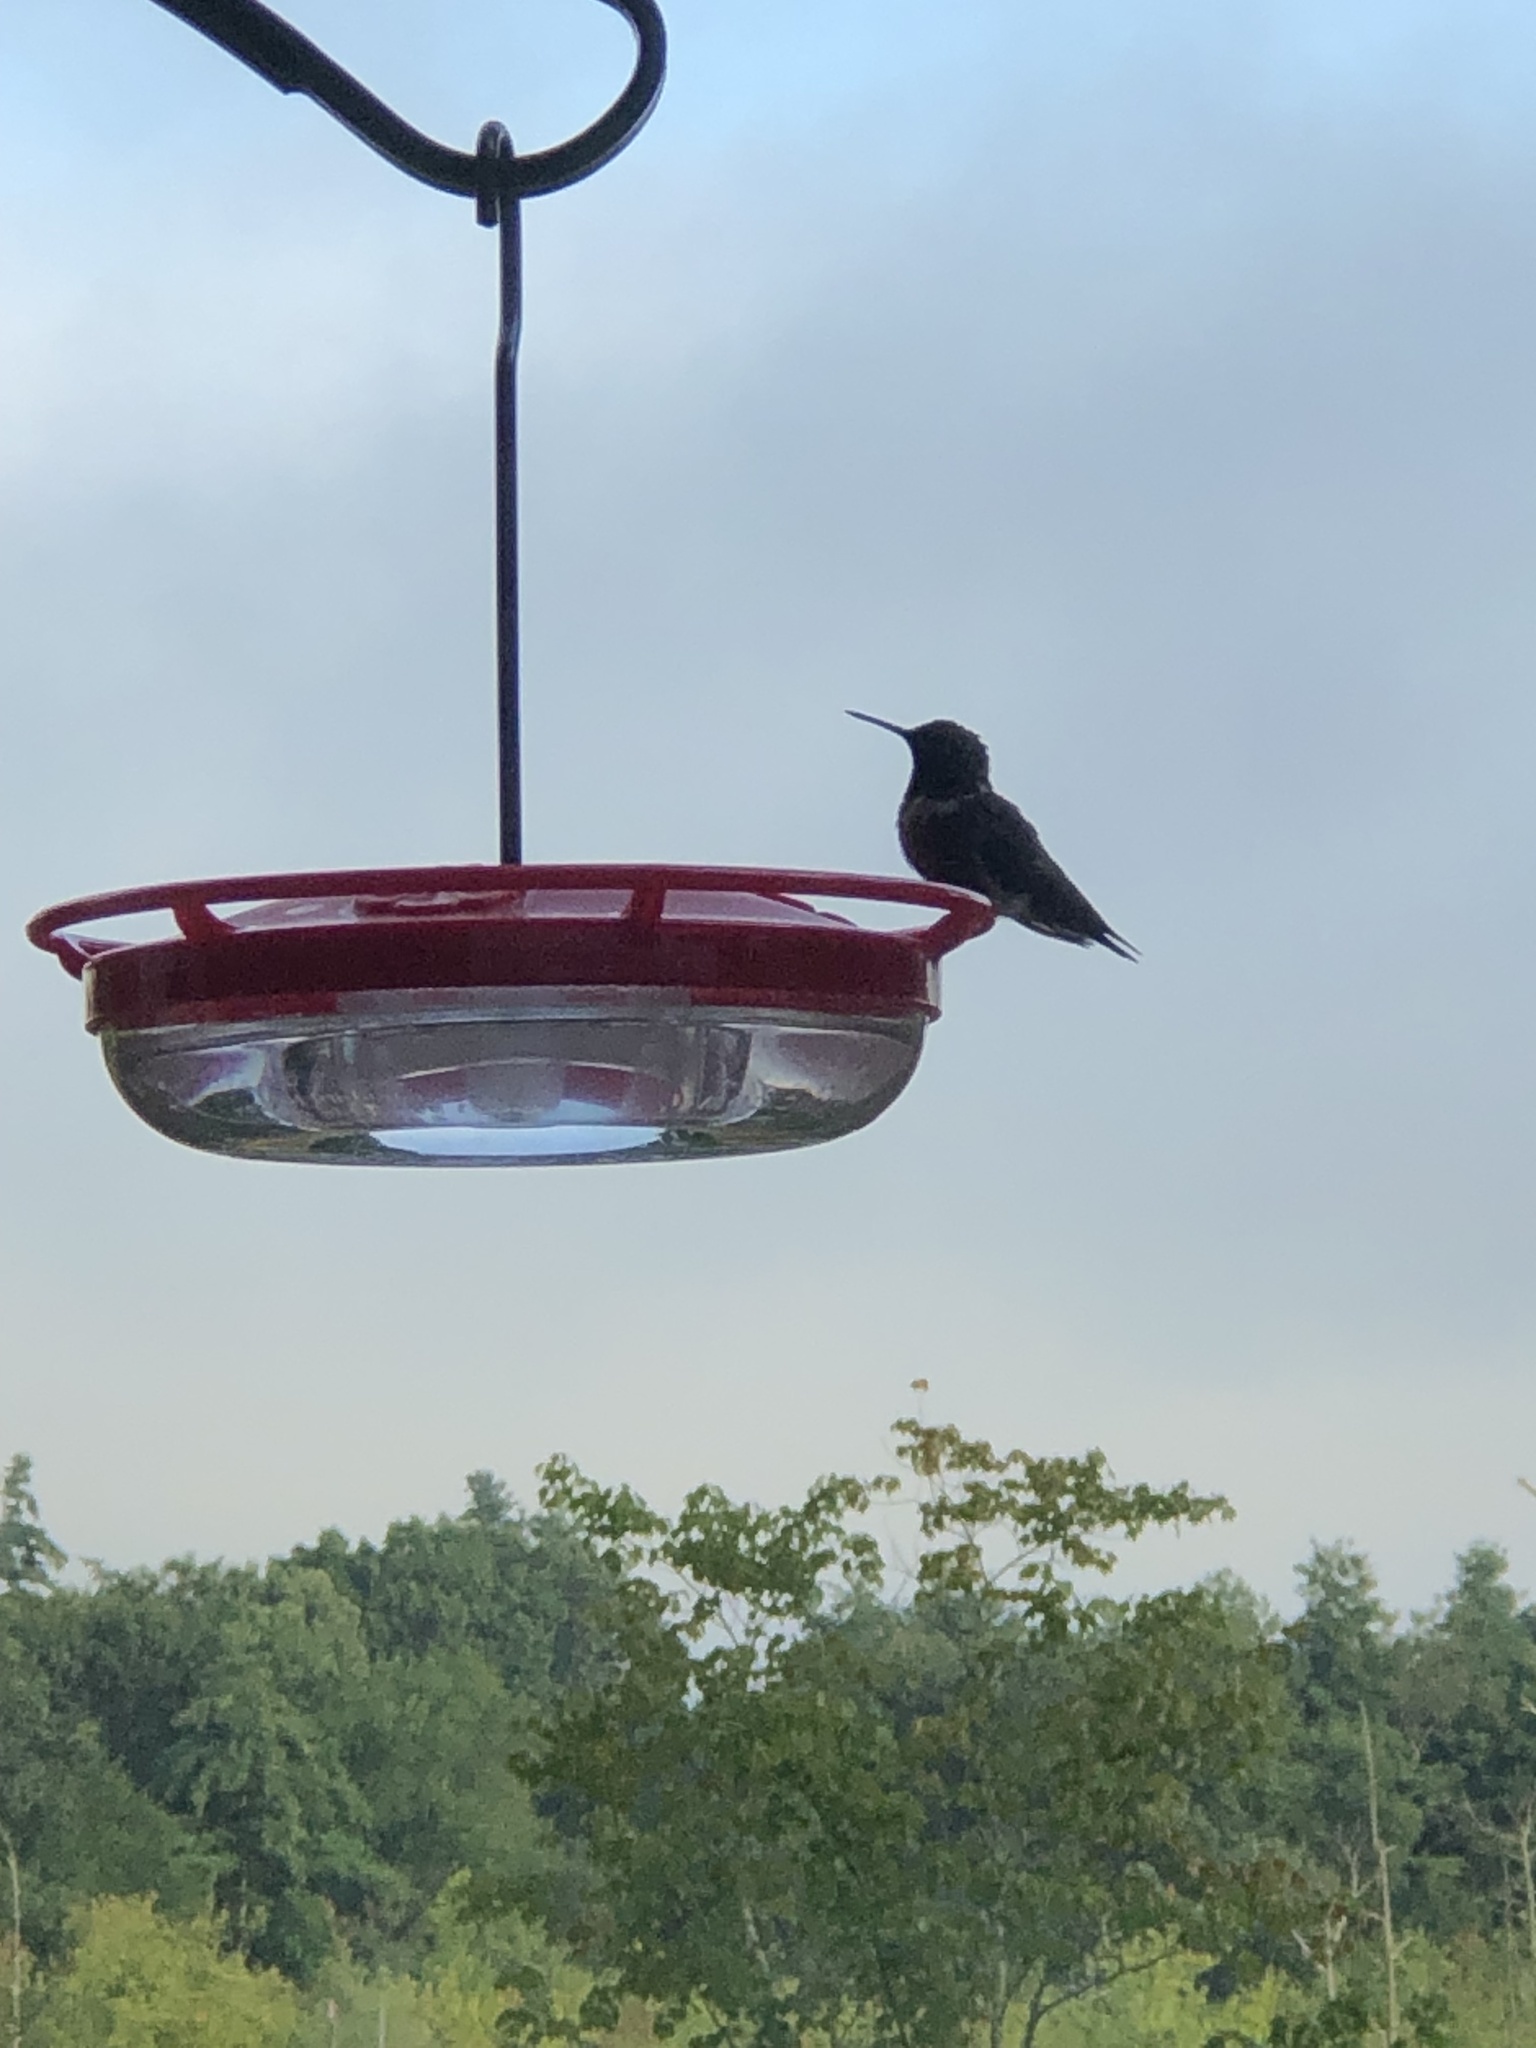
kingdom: Animalia
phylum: Chordata
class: Aves
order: Apodiformes
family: Trochilidae
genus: Archilochus
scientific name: Archilochus colubris
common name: Ruby-throated hummingbird
